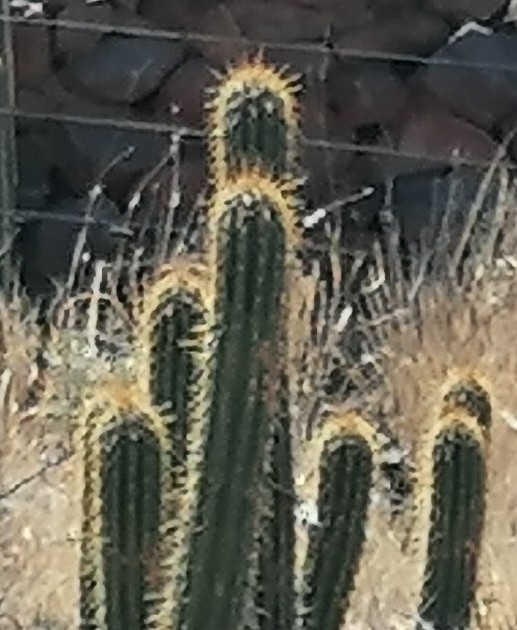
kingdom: Plantae
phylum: Tracheophyta
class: Magnoliopsida
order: Caryophyllales
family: Cactaceae
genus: Soehrensia
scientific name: Soehrensia spachiana
